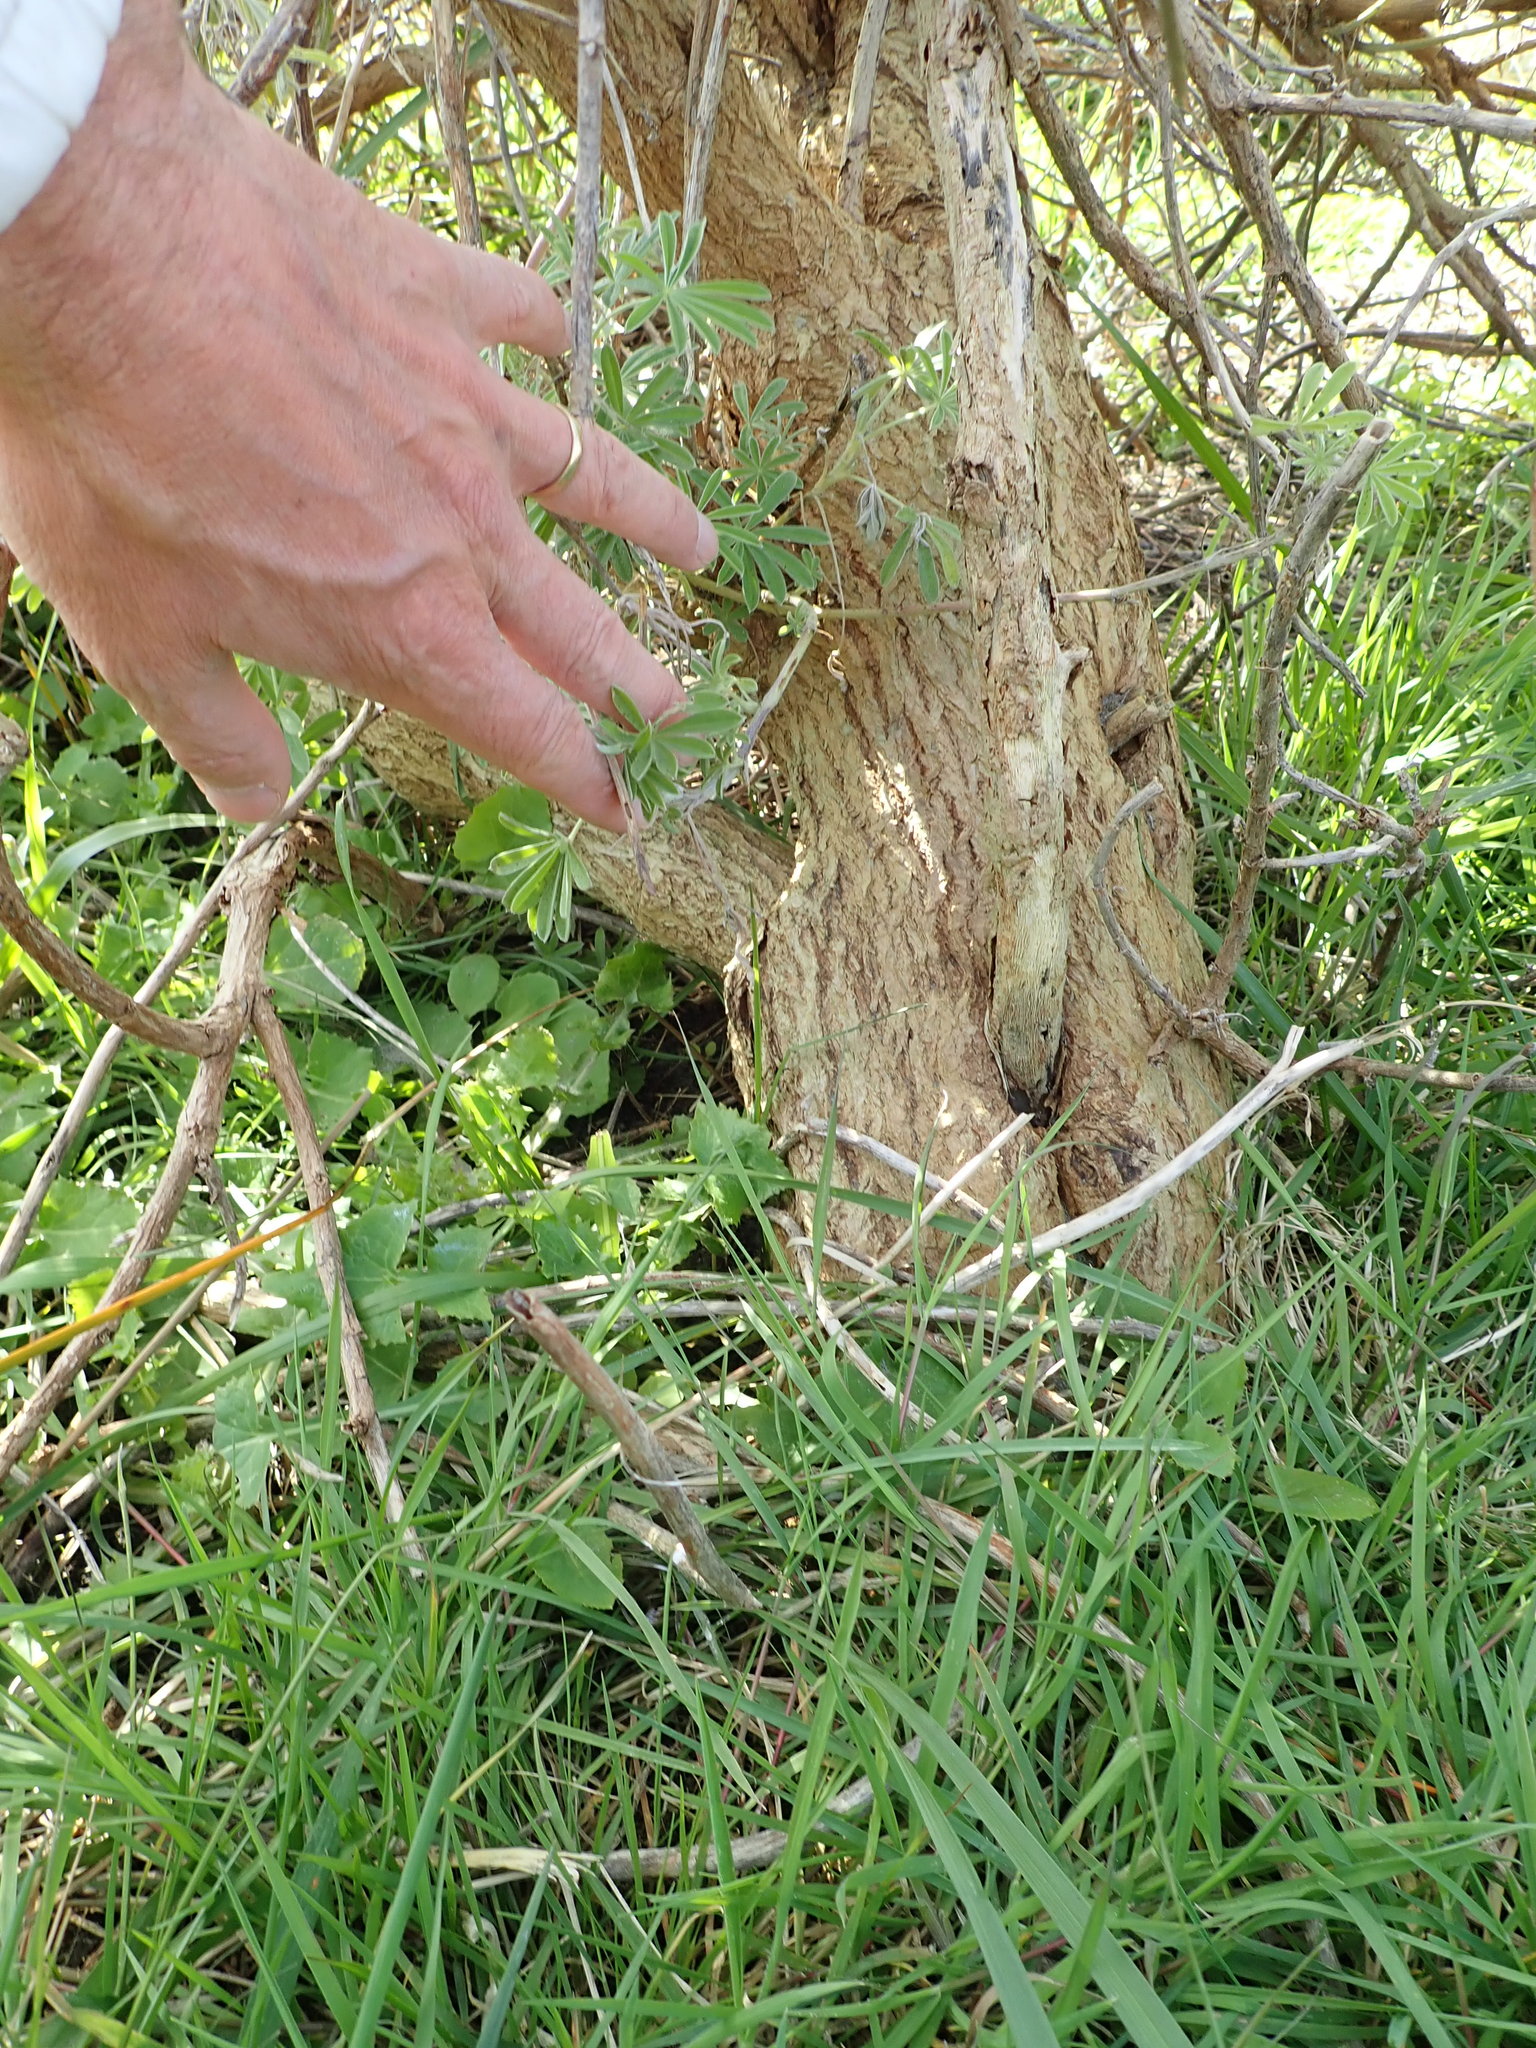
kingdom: Plantae
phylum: Tracheophyta
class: Magnoliopsida
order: Fabales
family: Fabaceae
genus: Lupinus
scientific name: Lupinus arboreus
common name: Yellow bush lupine
